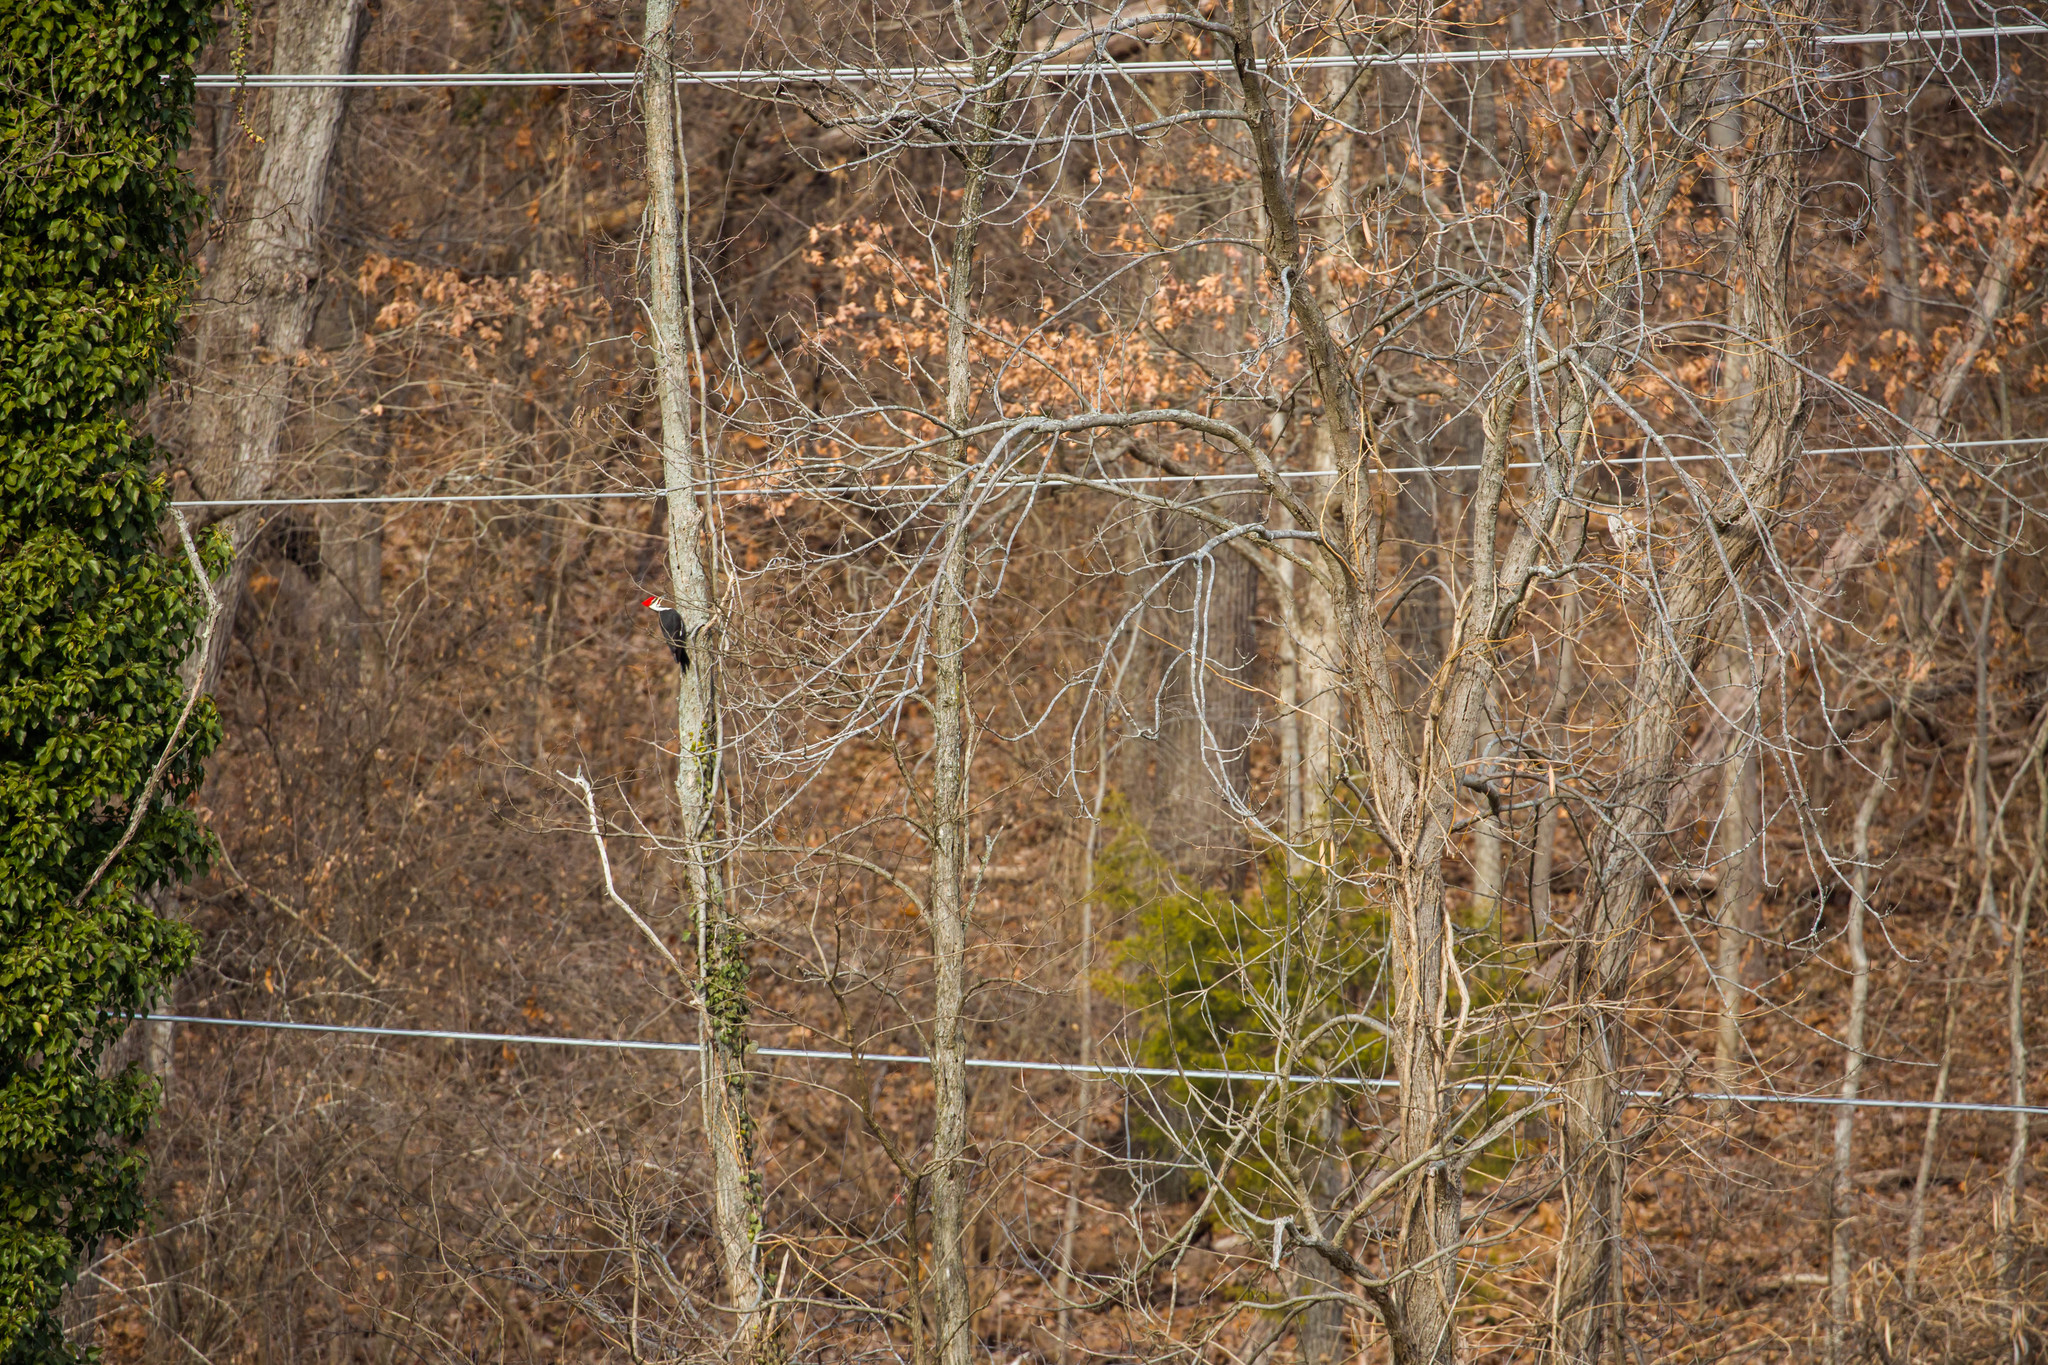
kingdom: Animalia
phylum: Chordata
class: Aves
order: Piciformes
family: Picidae
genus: Dryocopus
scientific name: Dryocopus pileatus
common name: Pileated woodpecker
